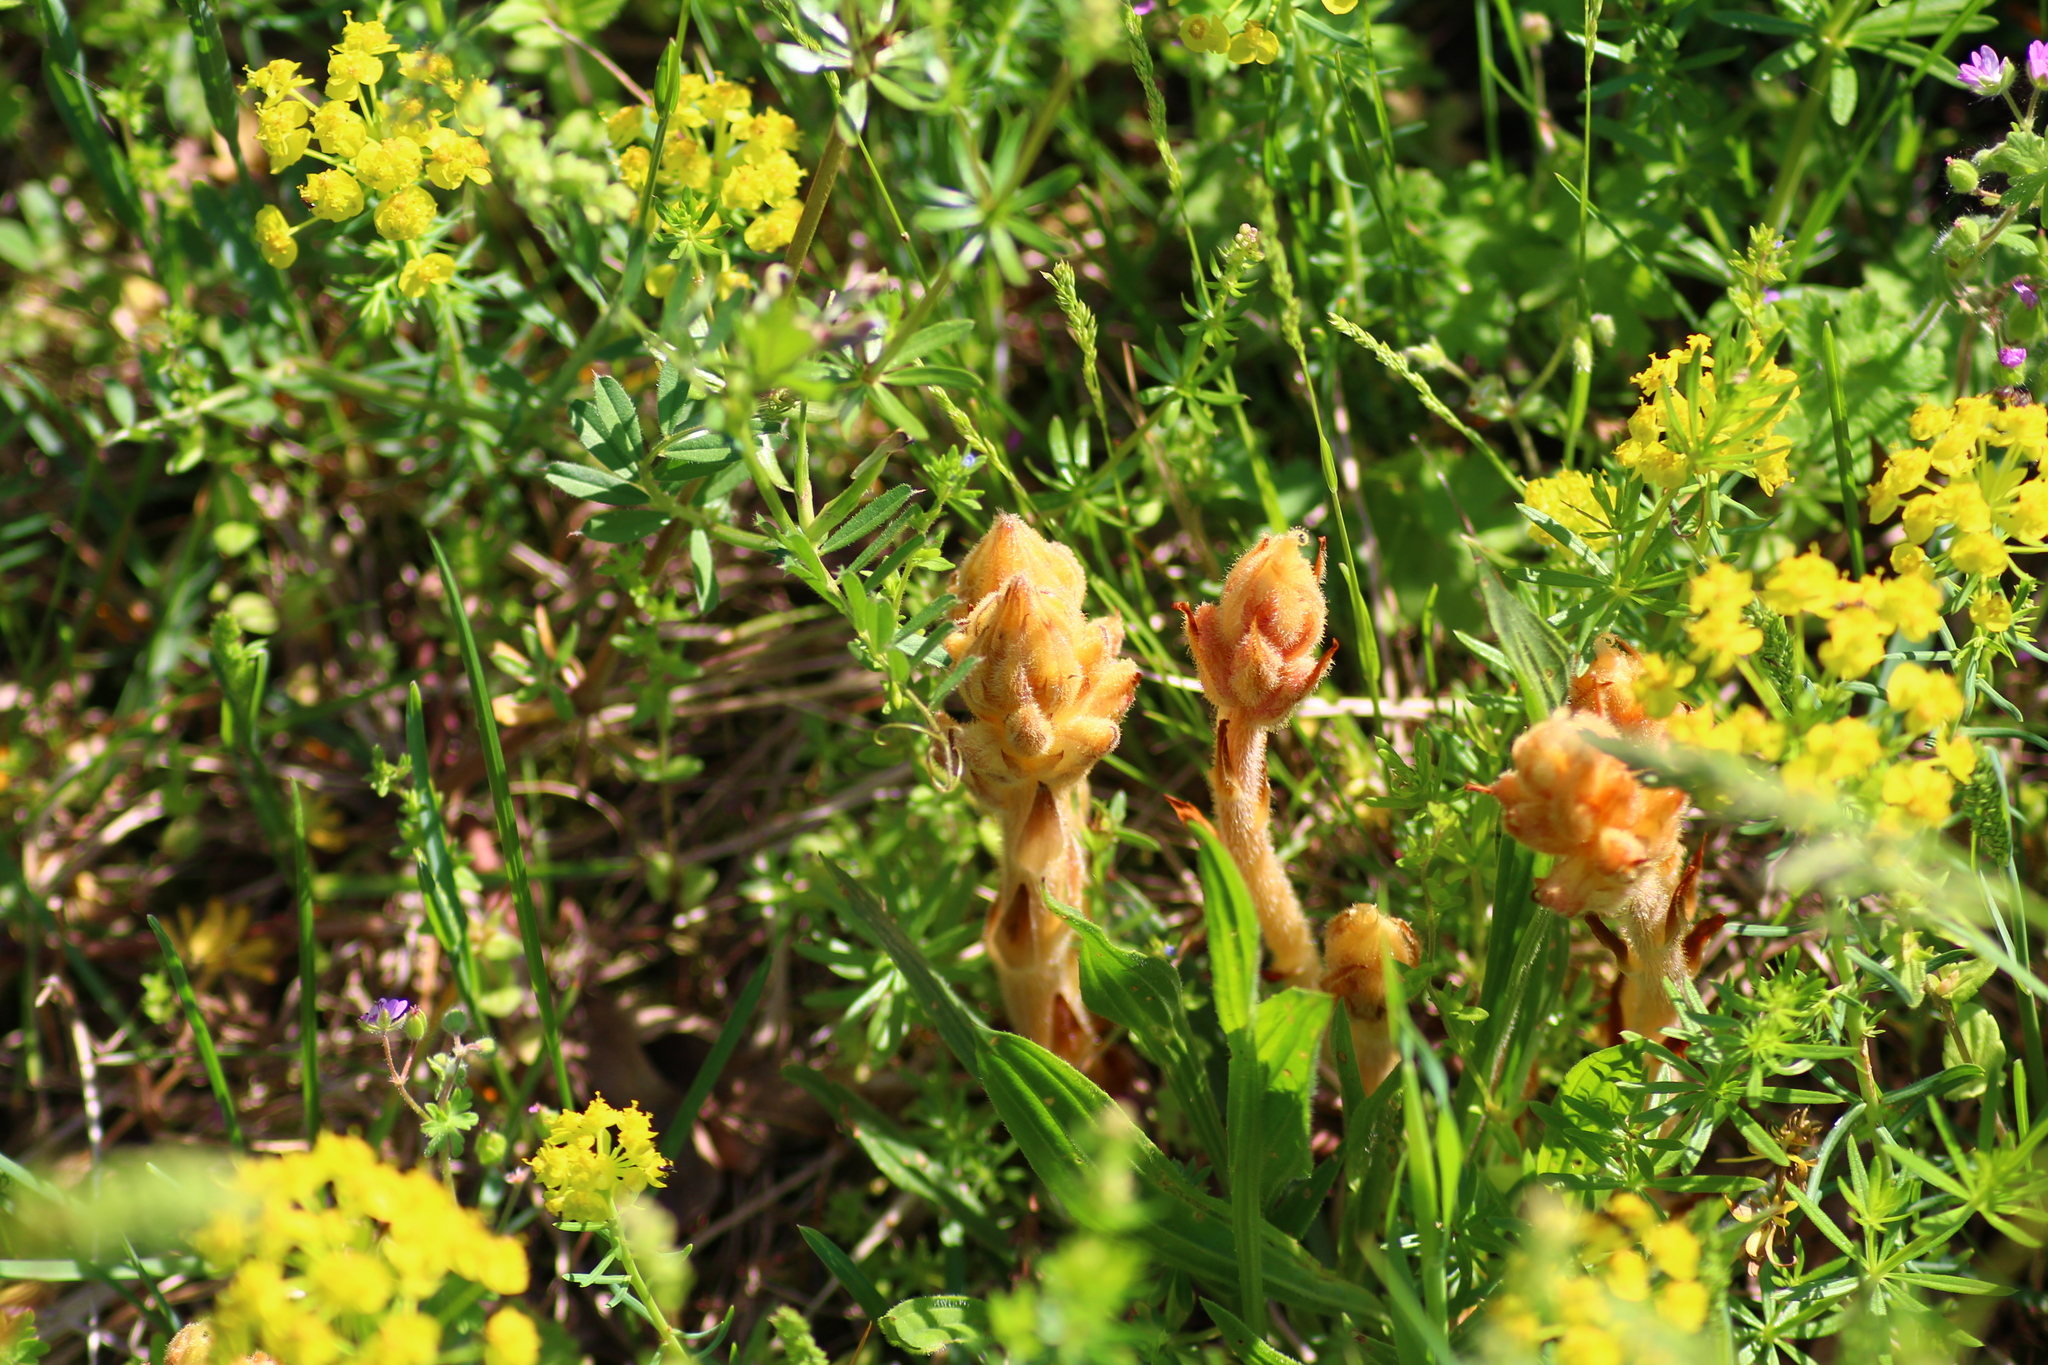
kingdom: Plantae
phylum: Tracheophyta
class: Magnoliopsida
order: Lamiales
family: Orobanchaceae
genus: Orobanche
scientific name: Orobanche caryophyllacea
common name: Bedstraw broomrape
